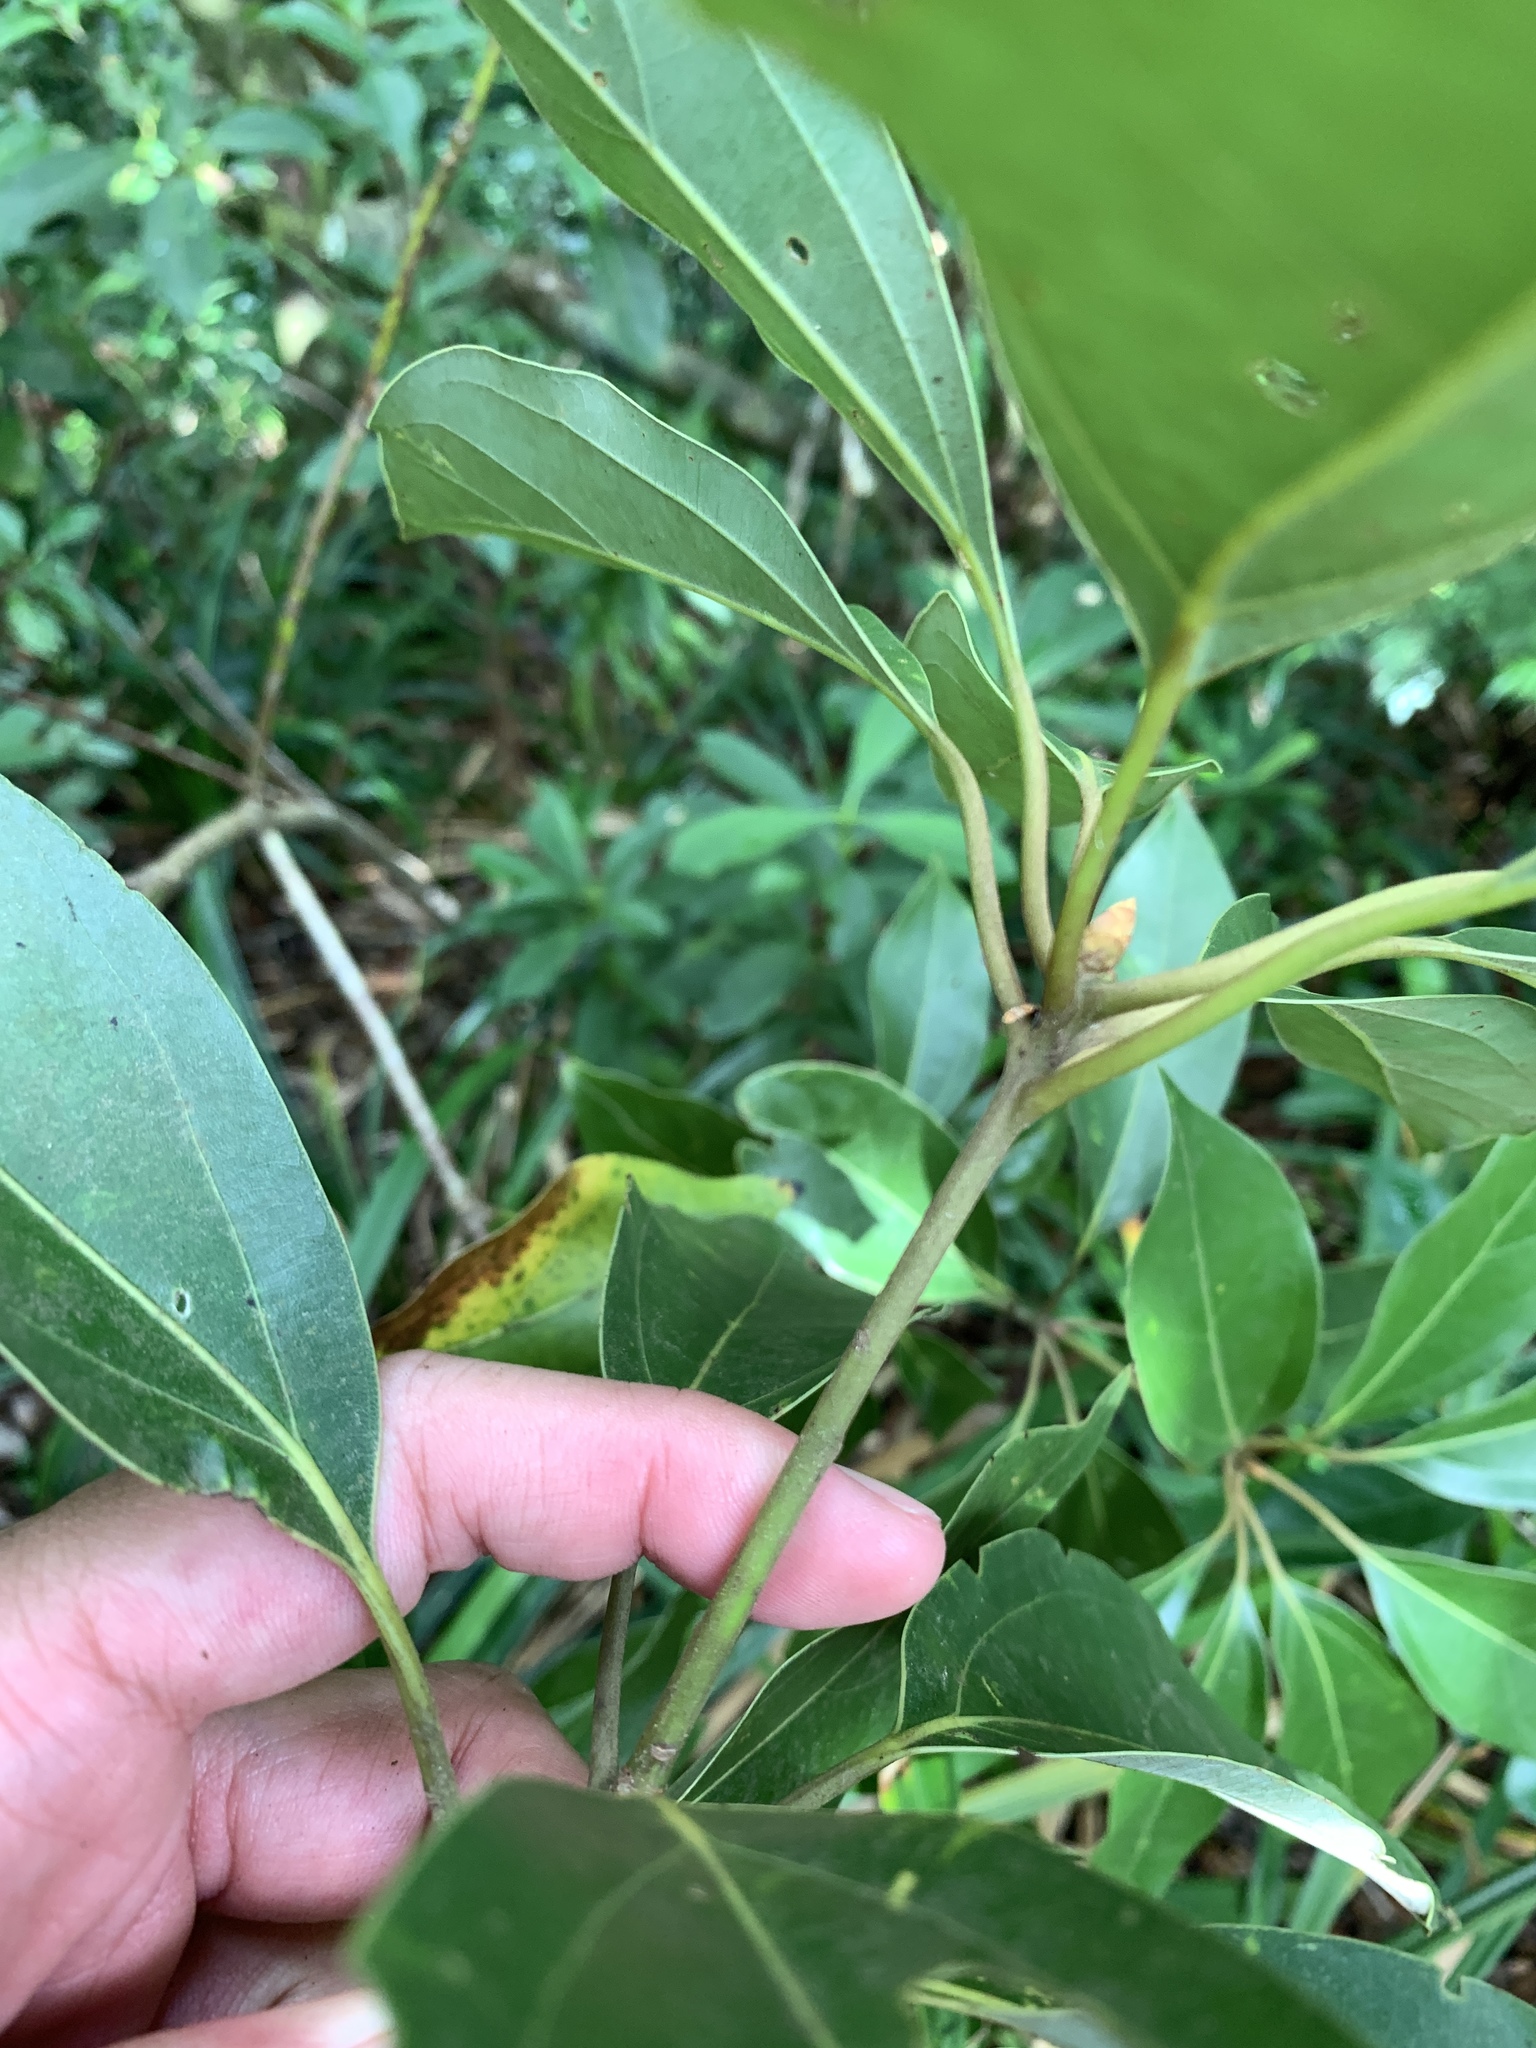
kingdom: Plantae
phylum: Tracheophyta
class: Magnoliopsida
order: Laurales
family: Lauraceae
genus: Neolitsea
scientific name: Neolitsea villosa
